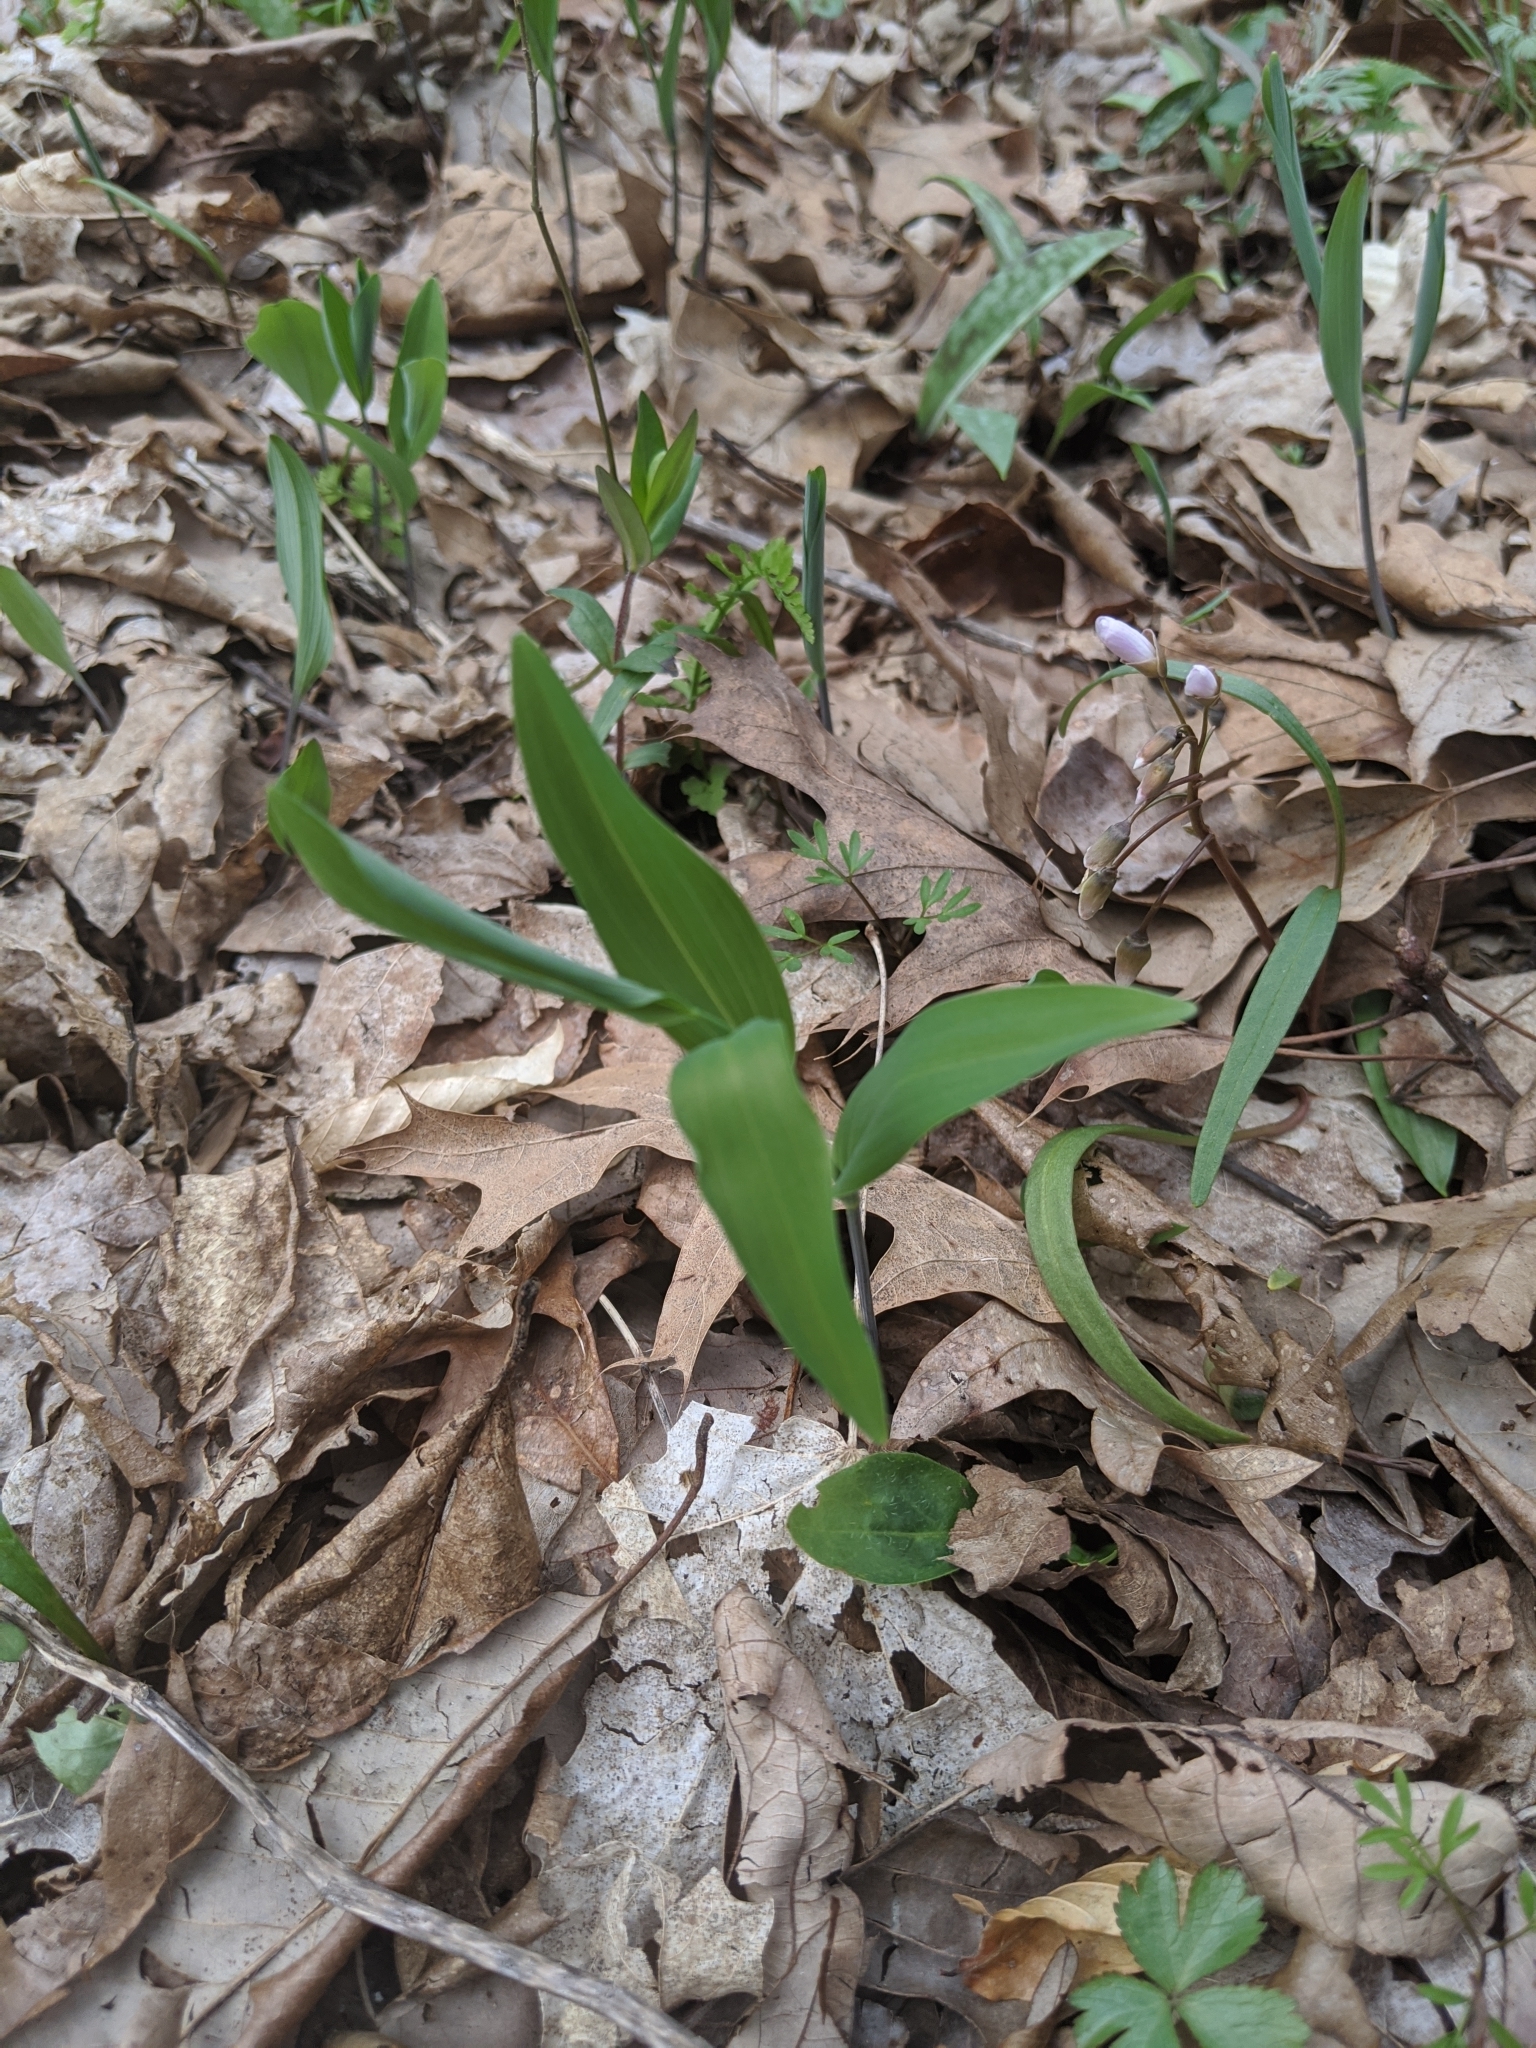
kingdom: Plantae
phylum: Tracheophyta
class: Liliopsida
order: Asparagales
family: Asparagaceae
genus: Polygonatum
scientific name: Polygonatum biflorum
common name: American solomon's-seal
